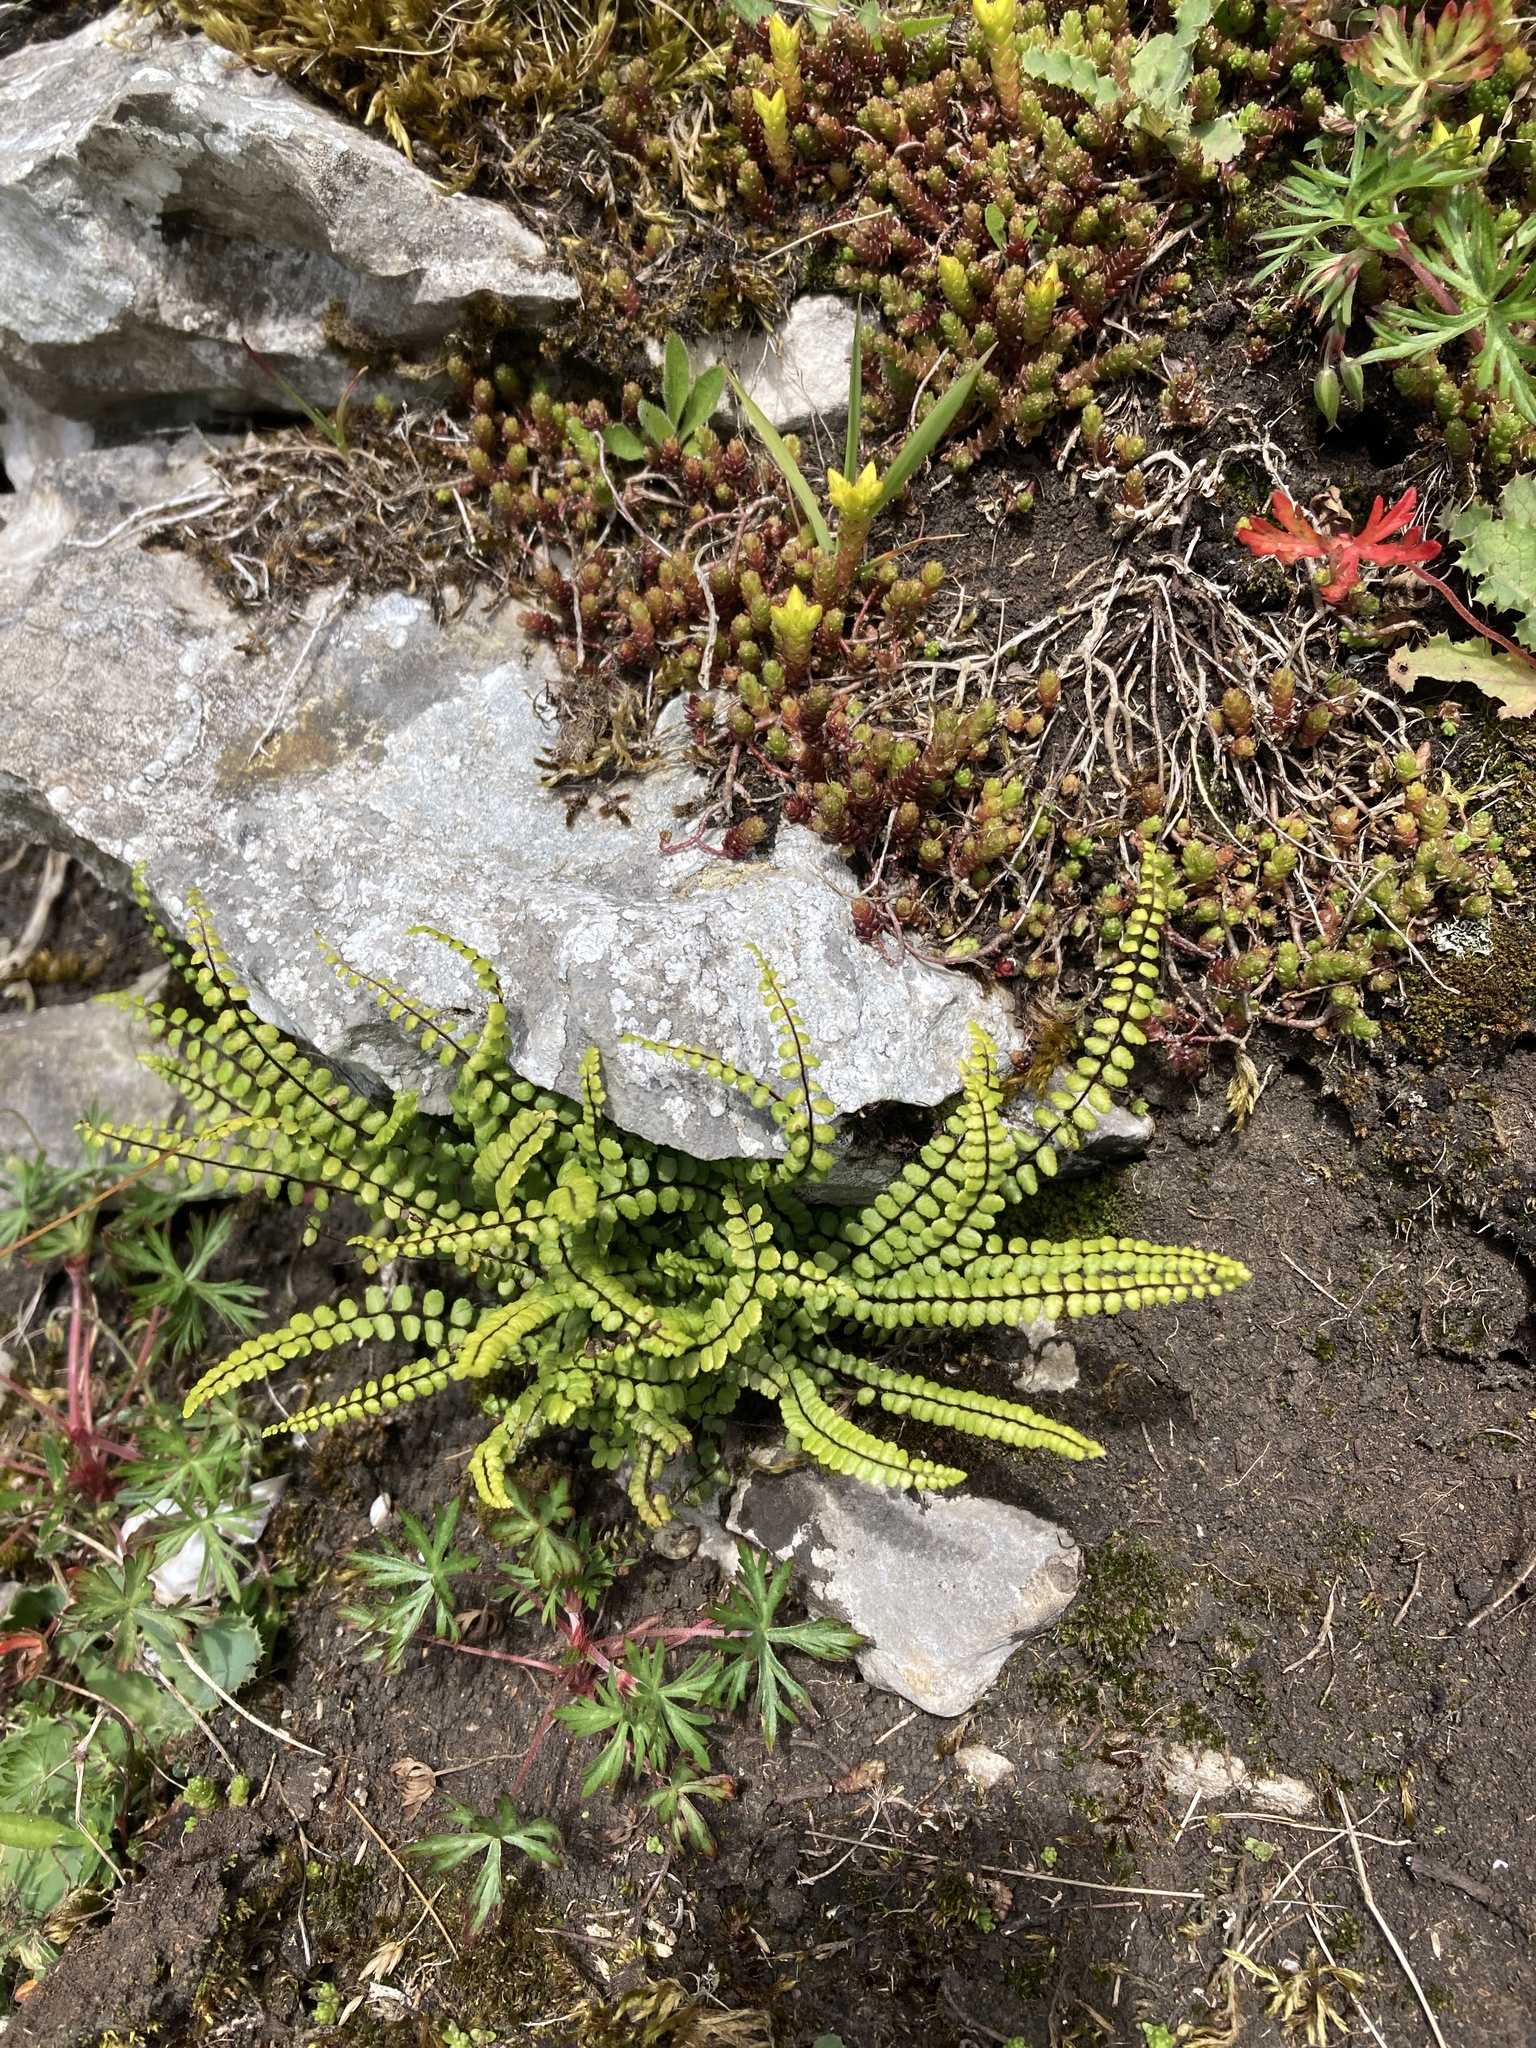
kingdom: Plantae
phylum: Tracheophyta
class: Polypodiopsida
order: Polypodiales
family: Aspleniaceae
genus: Asplenium
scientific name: Asplenium trichomanes
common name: Maidenhair spleenwort
